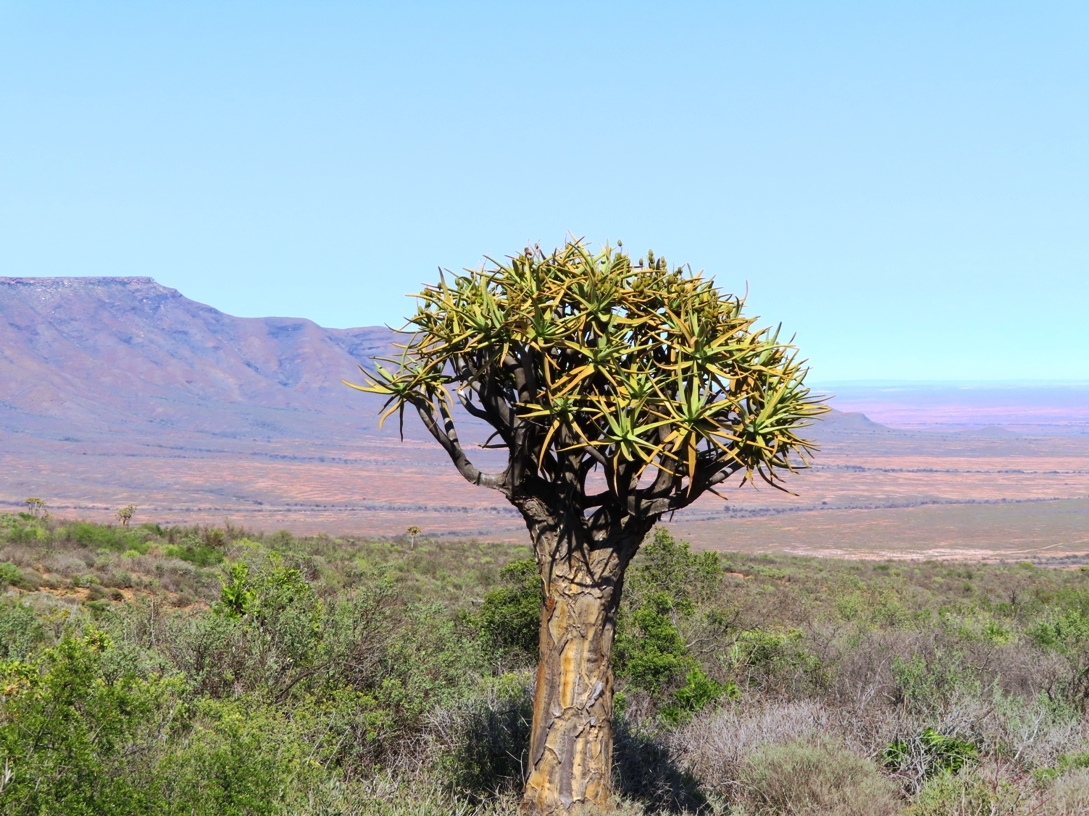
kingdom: Plantae
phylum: Tracheophyta
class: Liliopsida
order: Asparagales
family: Asphodelaceae
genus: Aloidendron
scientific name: Aloidendron dichotomum
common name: Quiver tree
